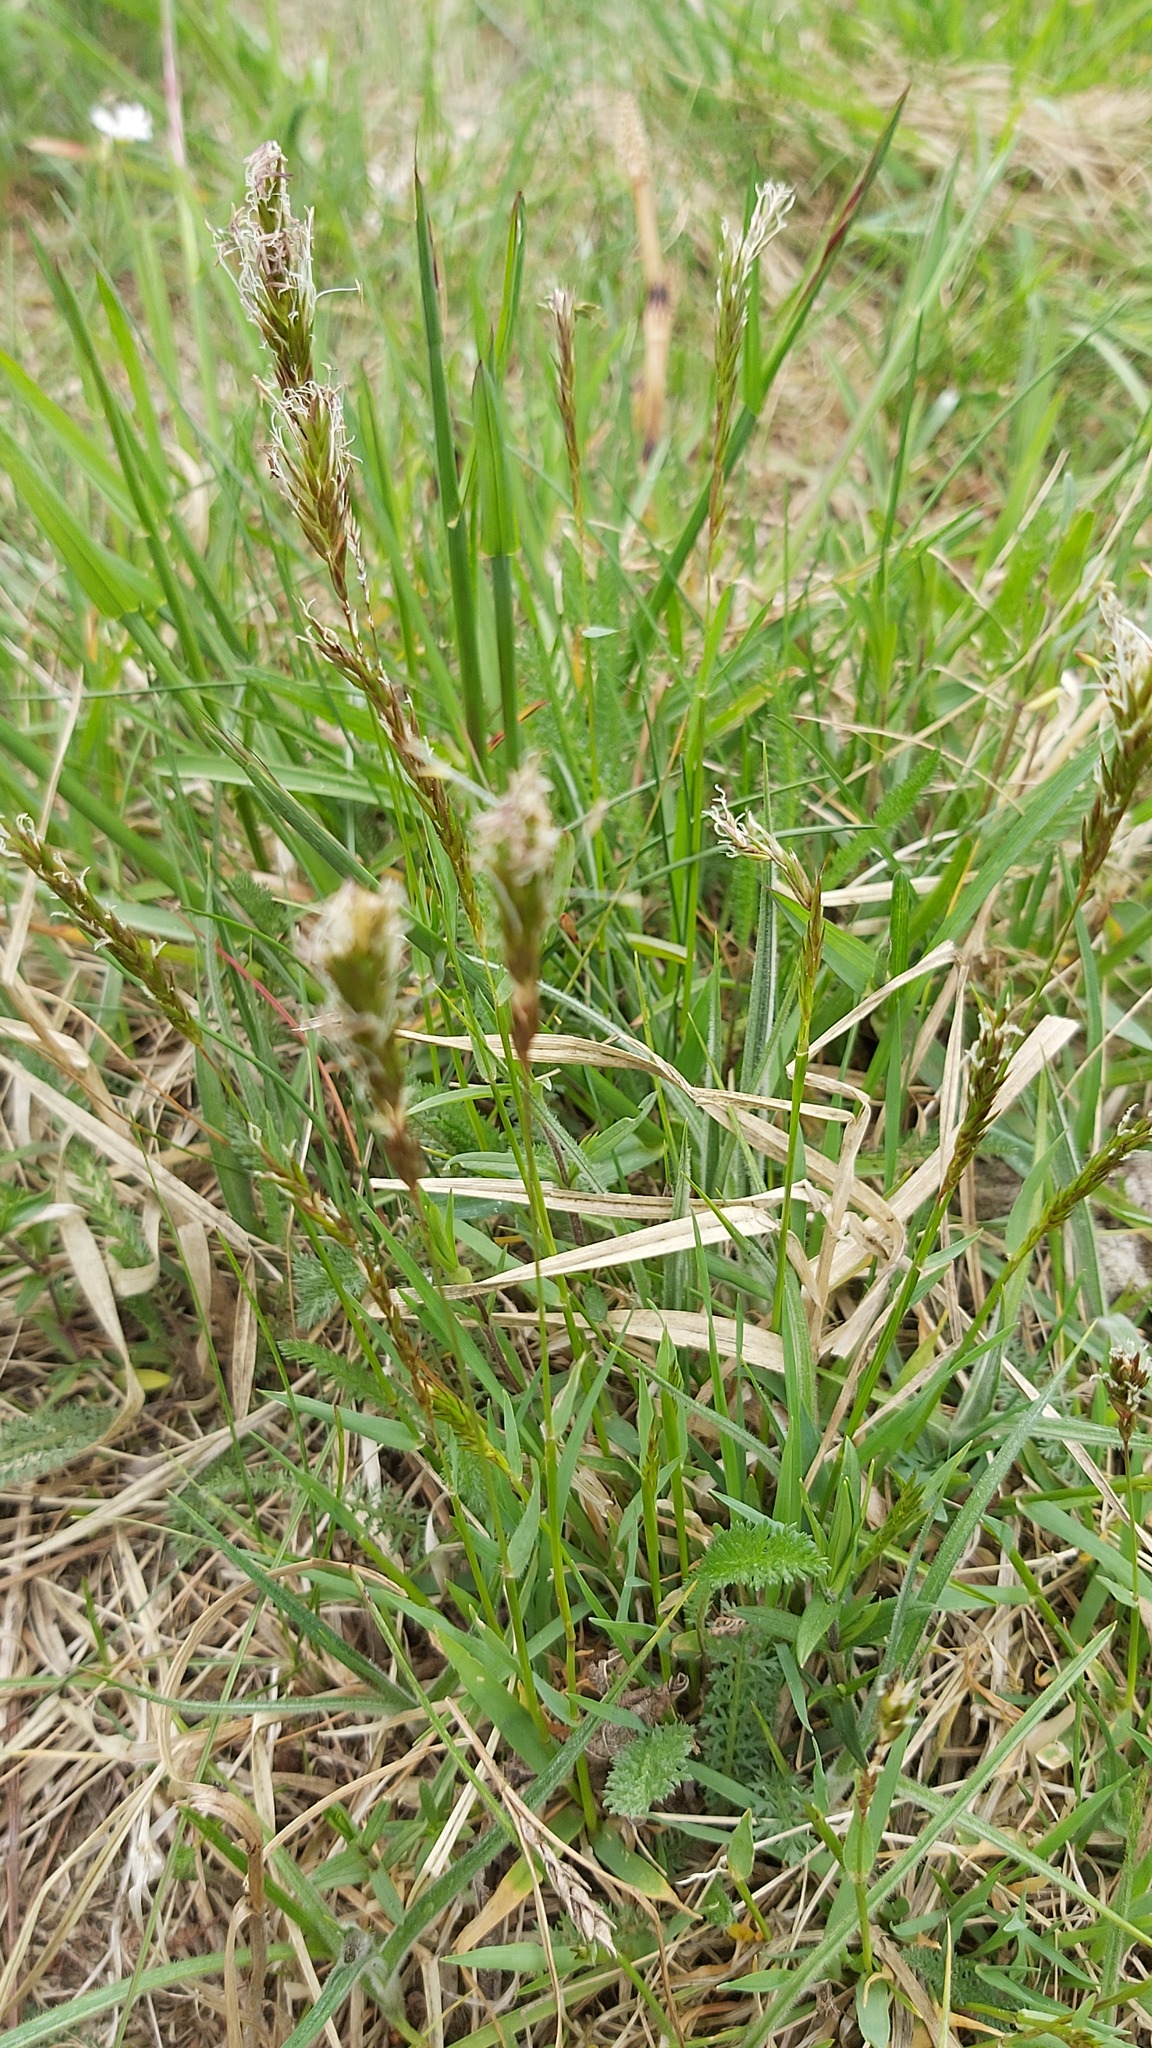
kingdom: Plantae
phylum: Tracheophyta
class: Liliopsida
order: Poales
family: Poaceae
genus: Anthoxanthum
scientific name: Anthoxanthum odoratum
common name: Sweet vernalgrass
